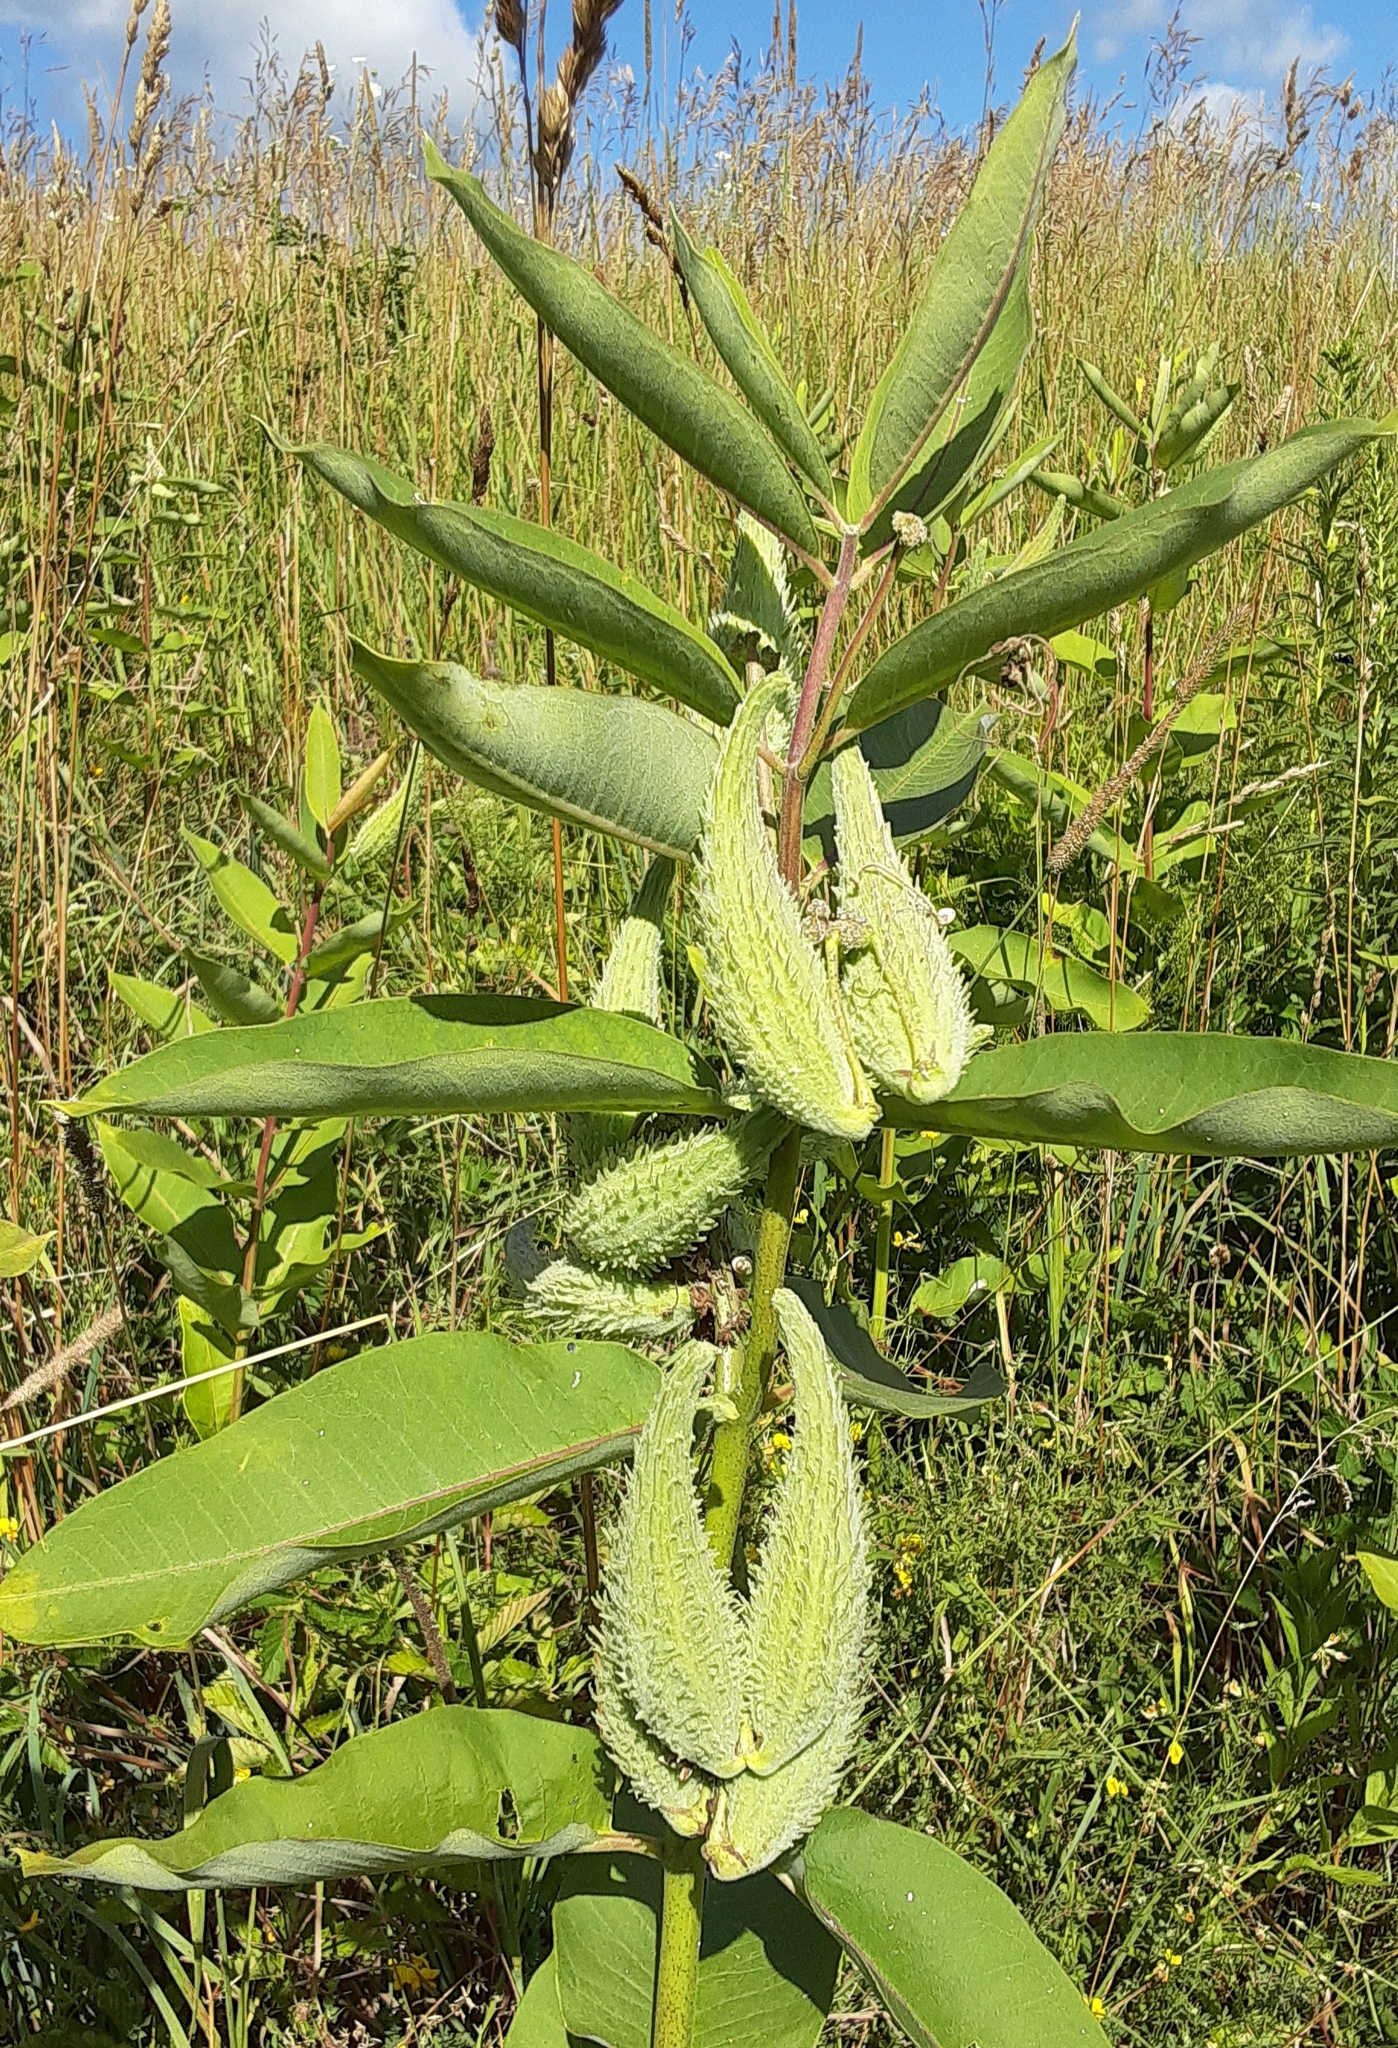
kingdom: Plantae
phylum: Tracheophyta
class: Magnoliopsida
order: Gentianales
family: Apocynaceae
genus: Asclepias
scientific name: Asclepias syriaca
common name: Common milkweed
